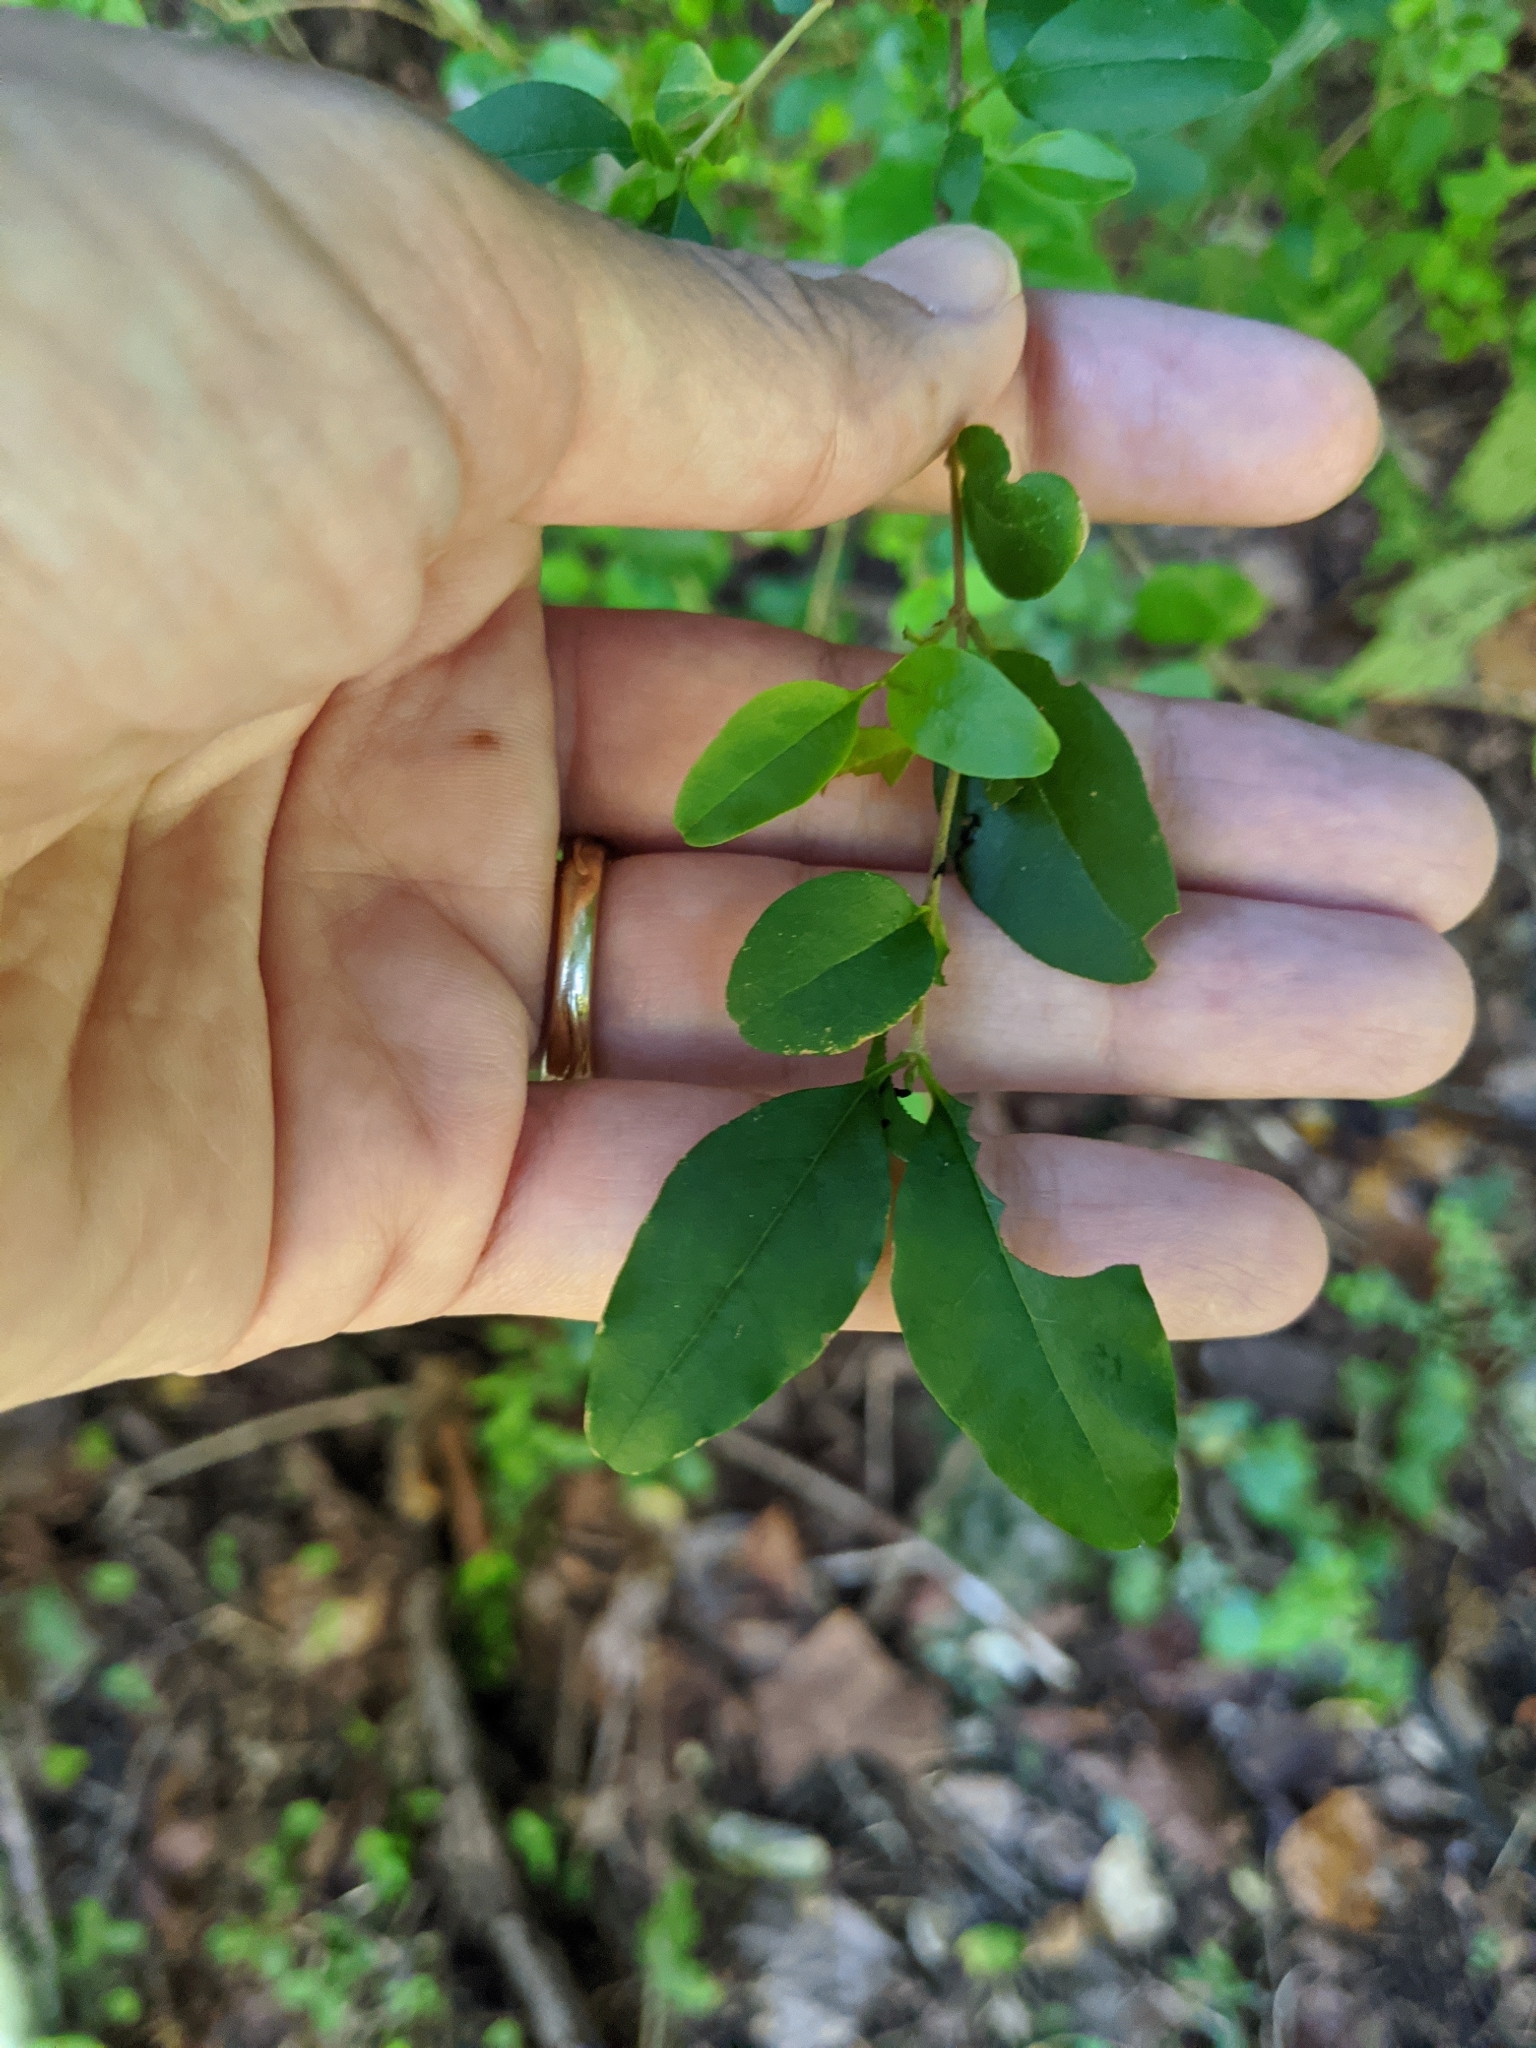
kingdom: Plantae
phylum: Tracheophyta
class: Magnoliopsida
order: Lamiales
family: Oleaceae
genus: Ligustrum
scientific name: Ligustrum sinense
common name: Chinese privet
